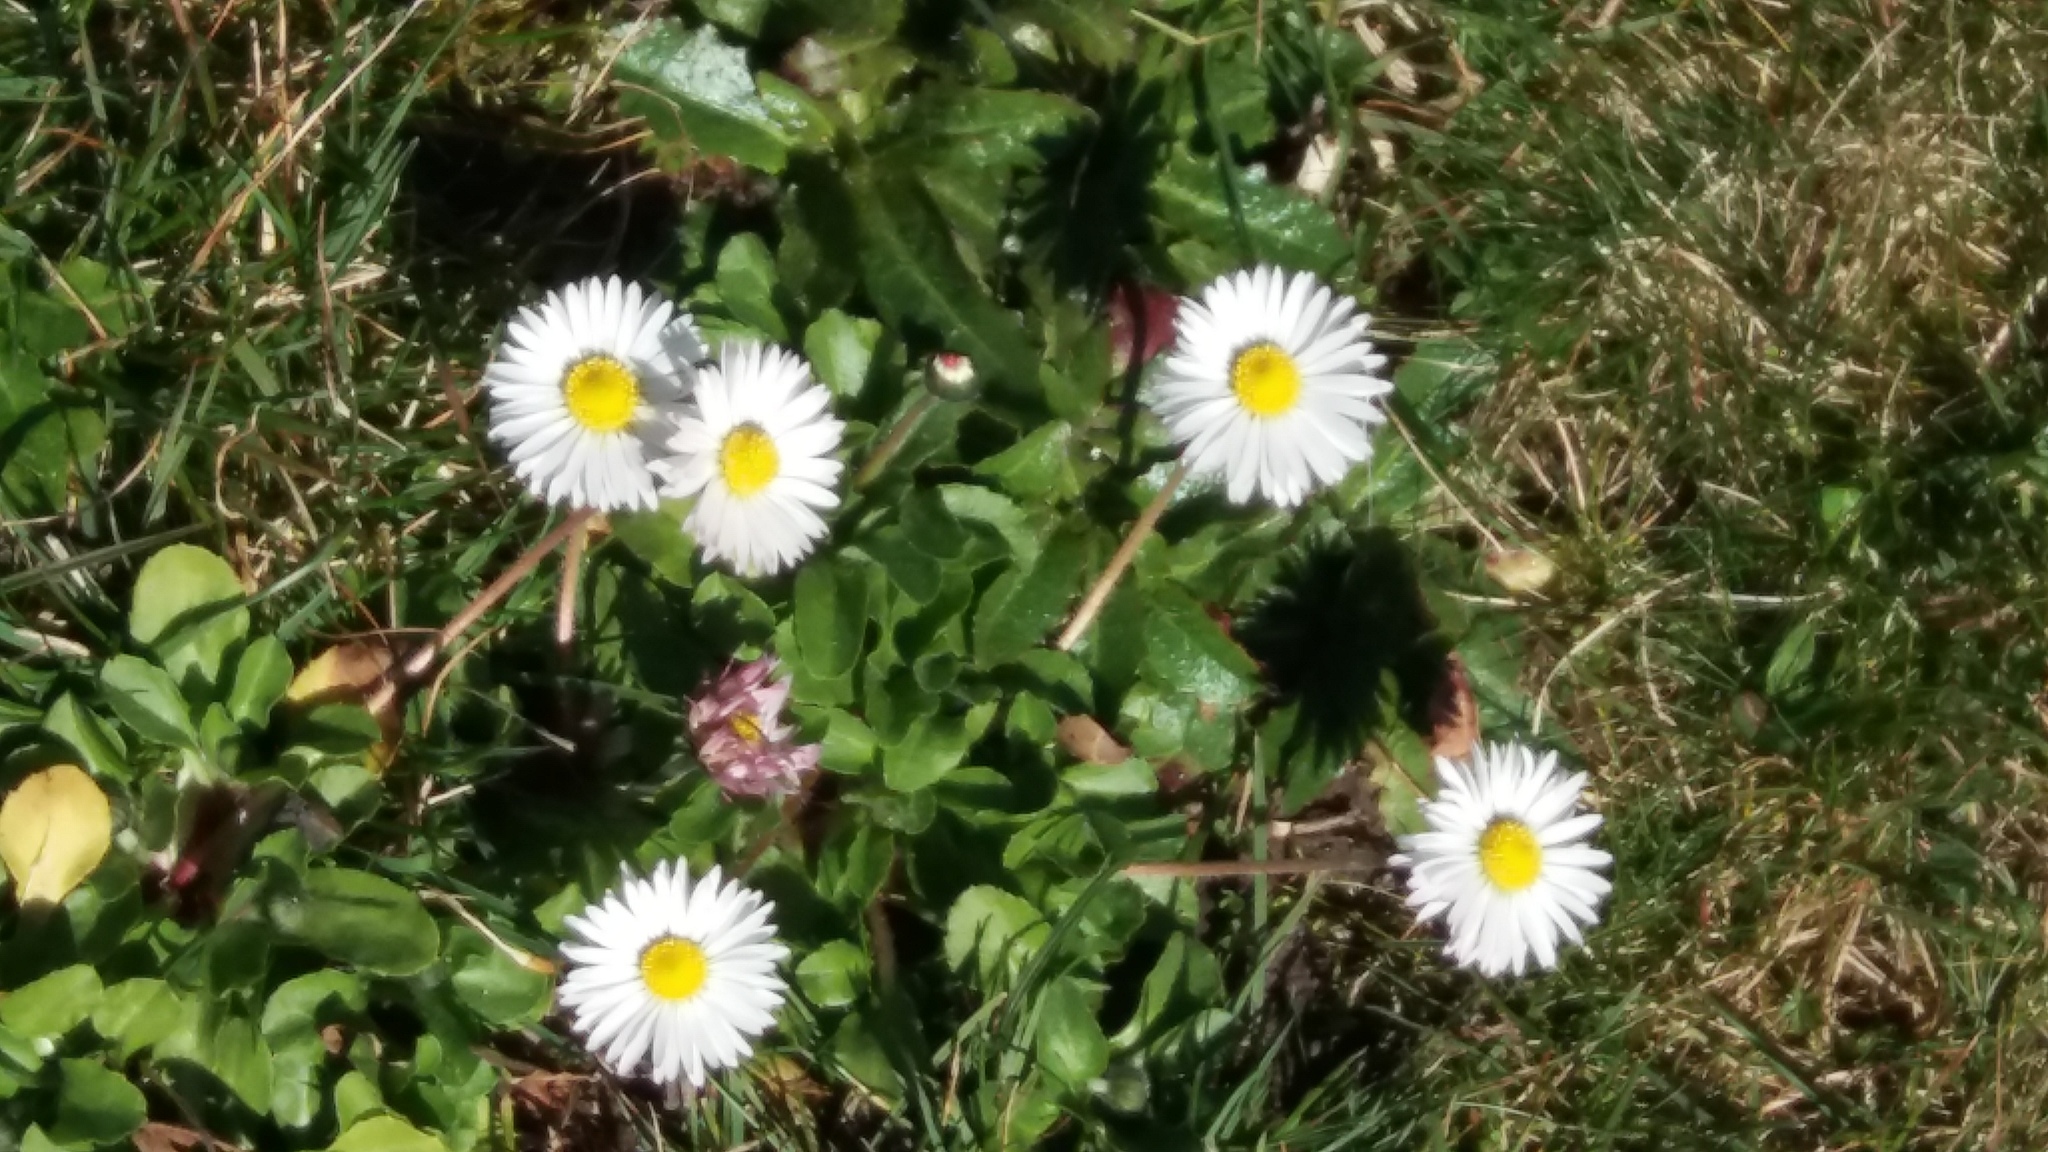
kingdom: Plantae
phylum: Tracheophyta
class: Magnoliopsida
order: Asterales
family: Asteraceae
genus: Bellis
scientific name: Bellis perennis
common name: Lawndaisy
